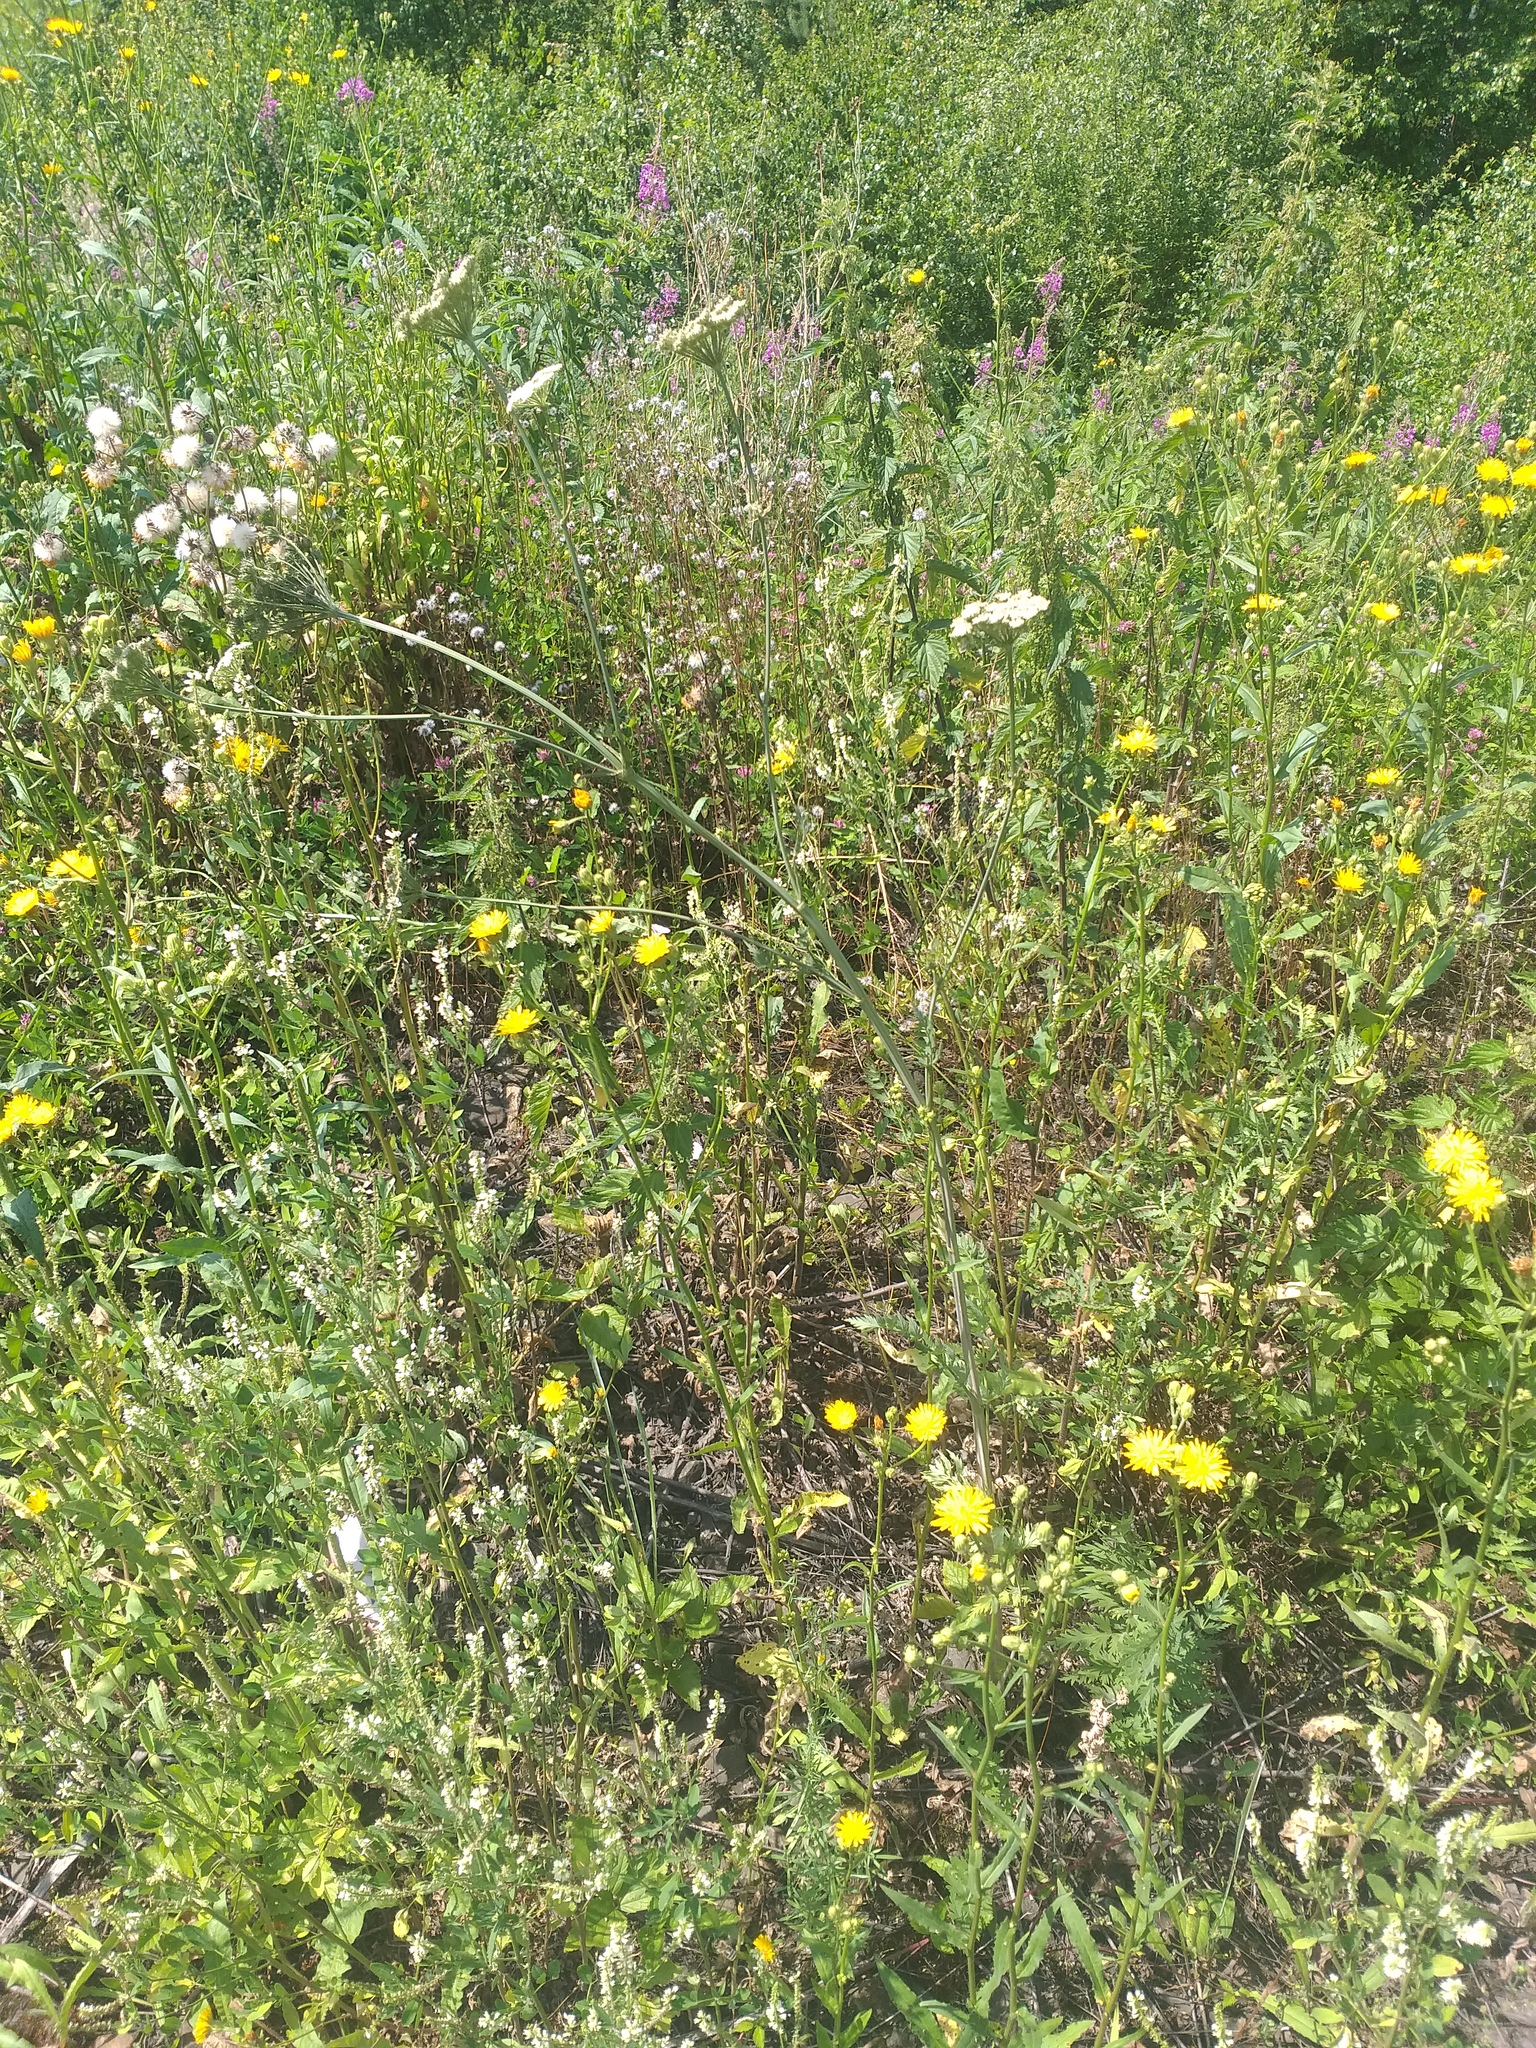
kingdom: Plantae
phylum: Tracheophyta
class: Magnoliopsida
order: Apiales
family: Apiaceae
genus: Seseli
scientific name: Seseli libanotis
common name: Mooncarrot
